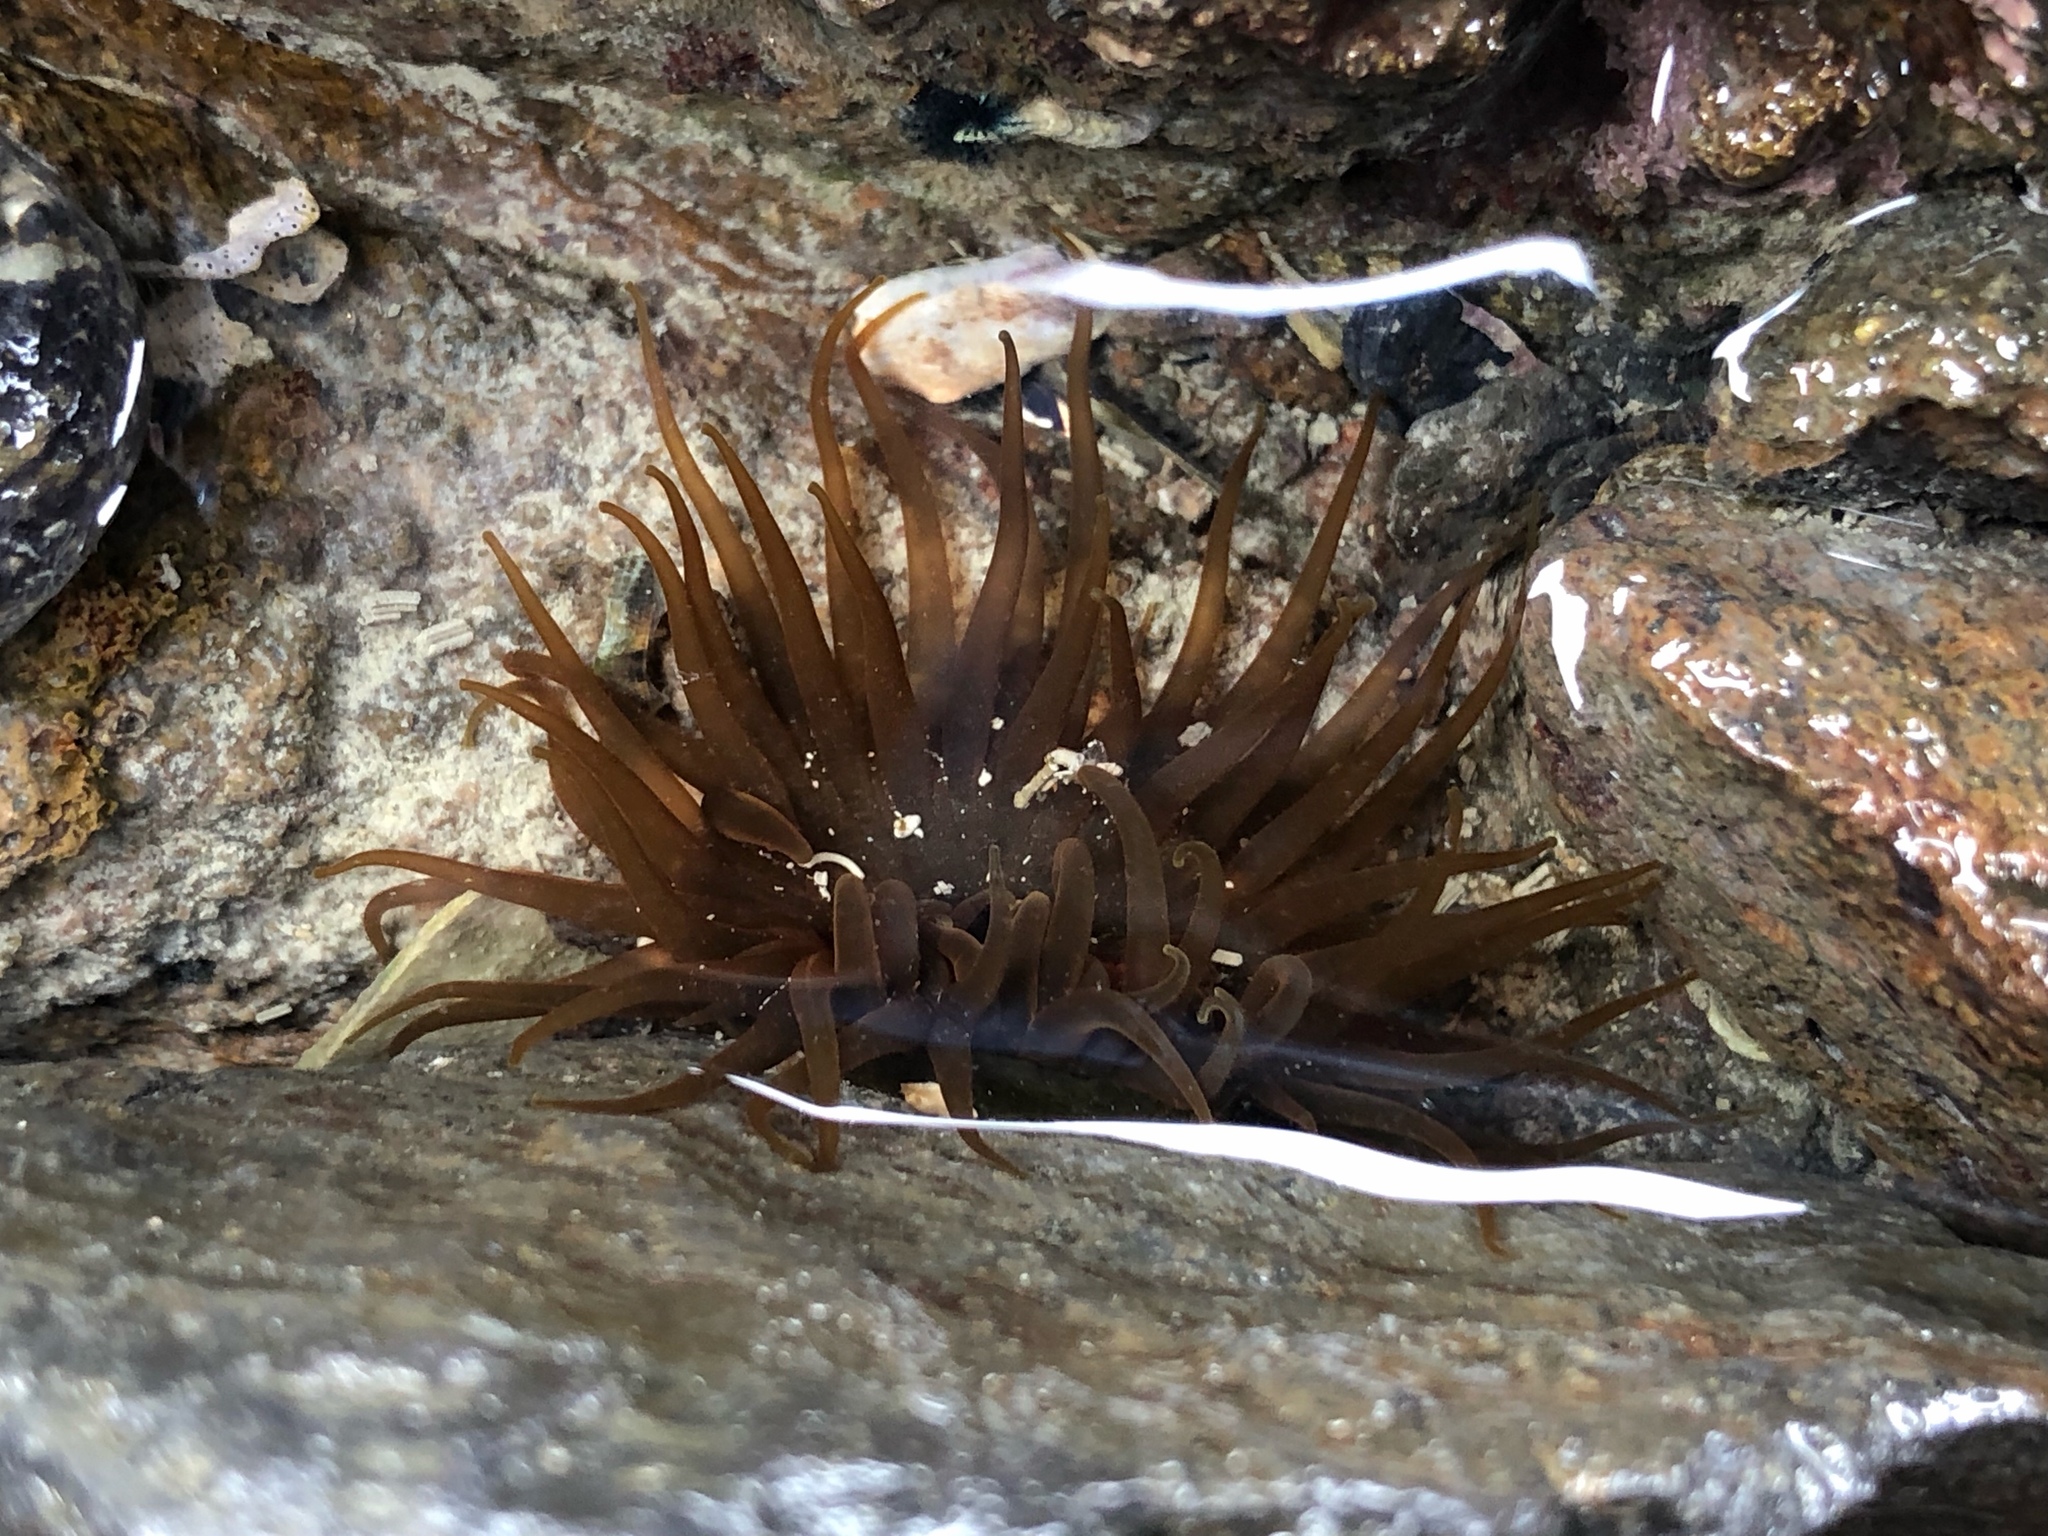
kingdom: Animalia
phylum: Cnidaria
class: Anthozoa
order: Actiniaria
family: Actiniidae
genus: Isactinia
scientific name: Isactinia olivacea
